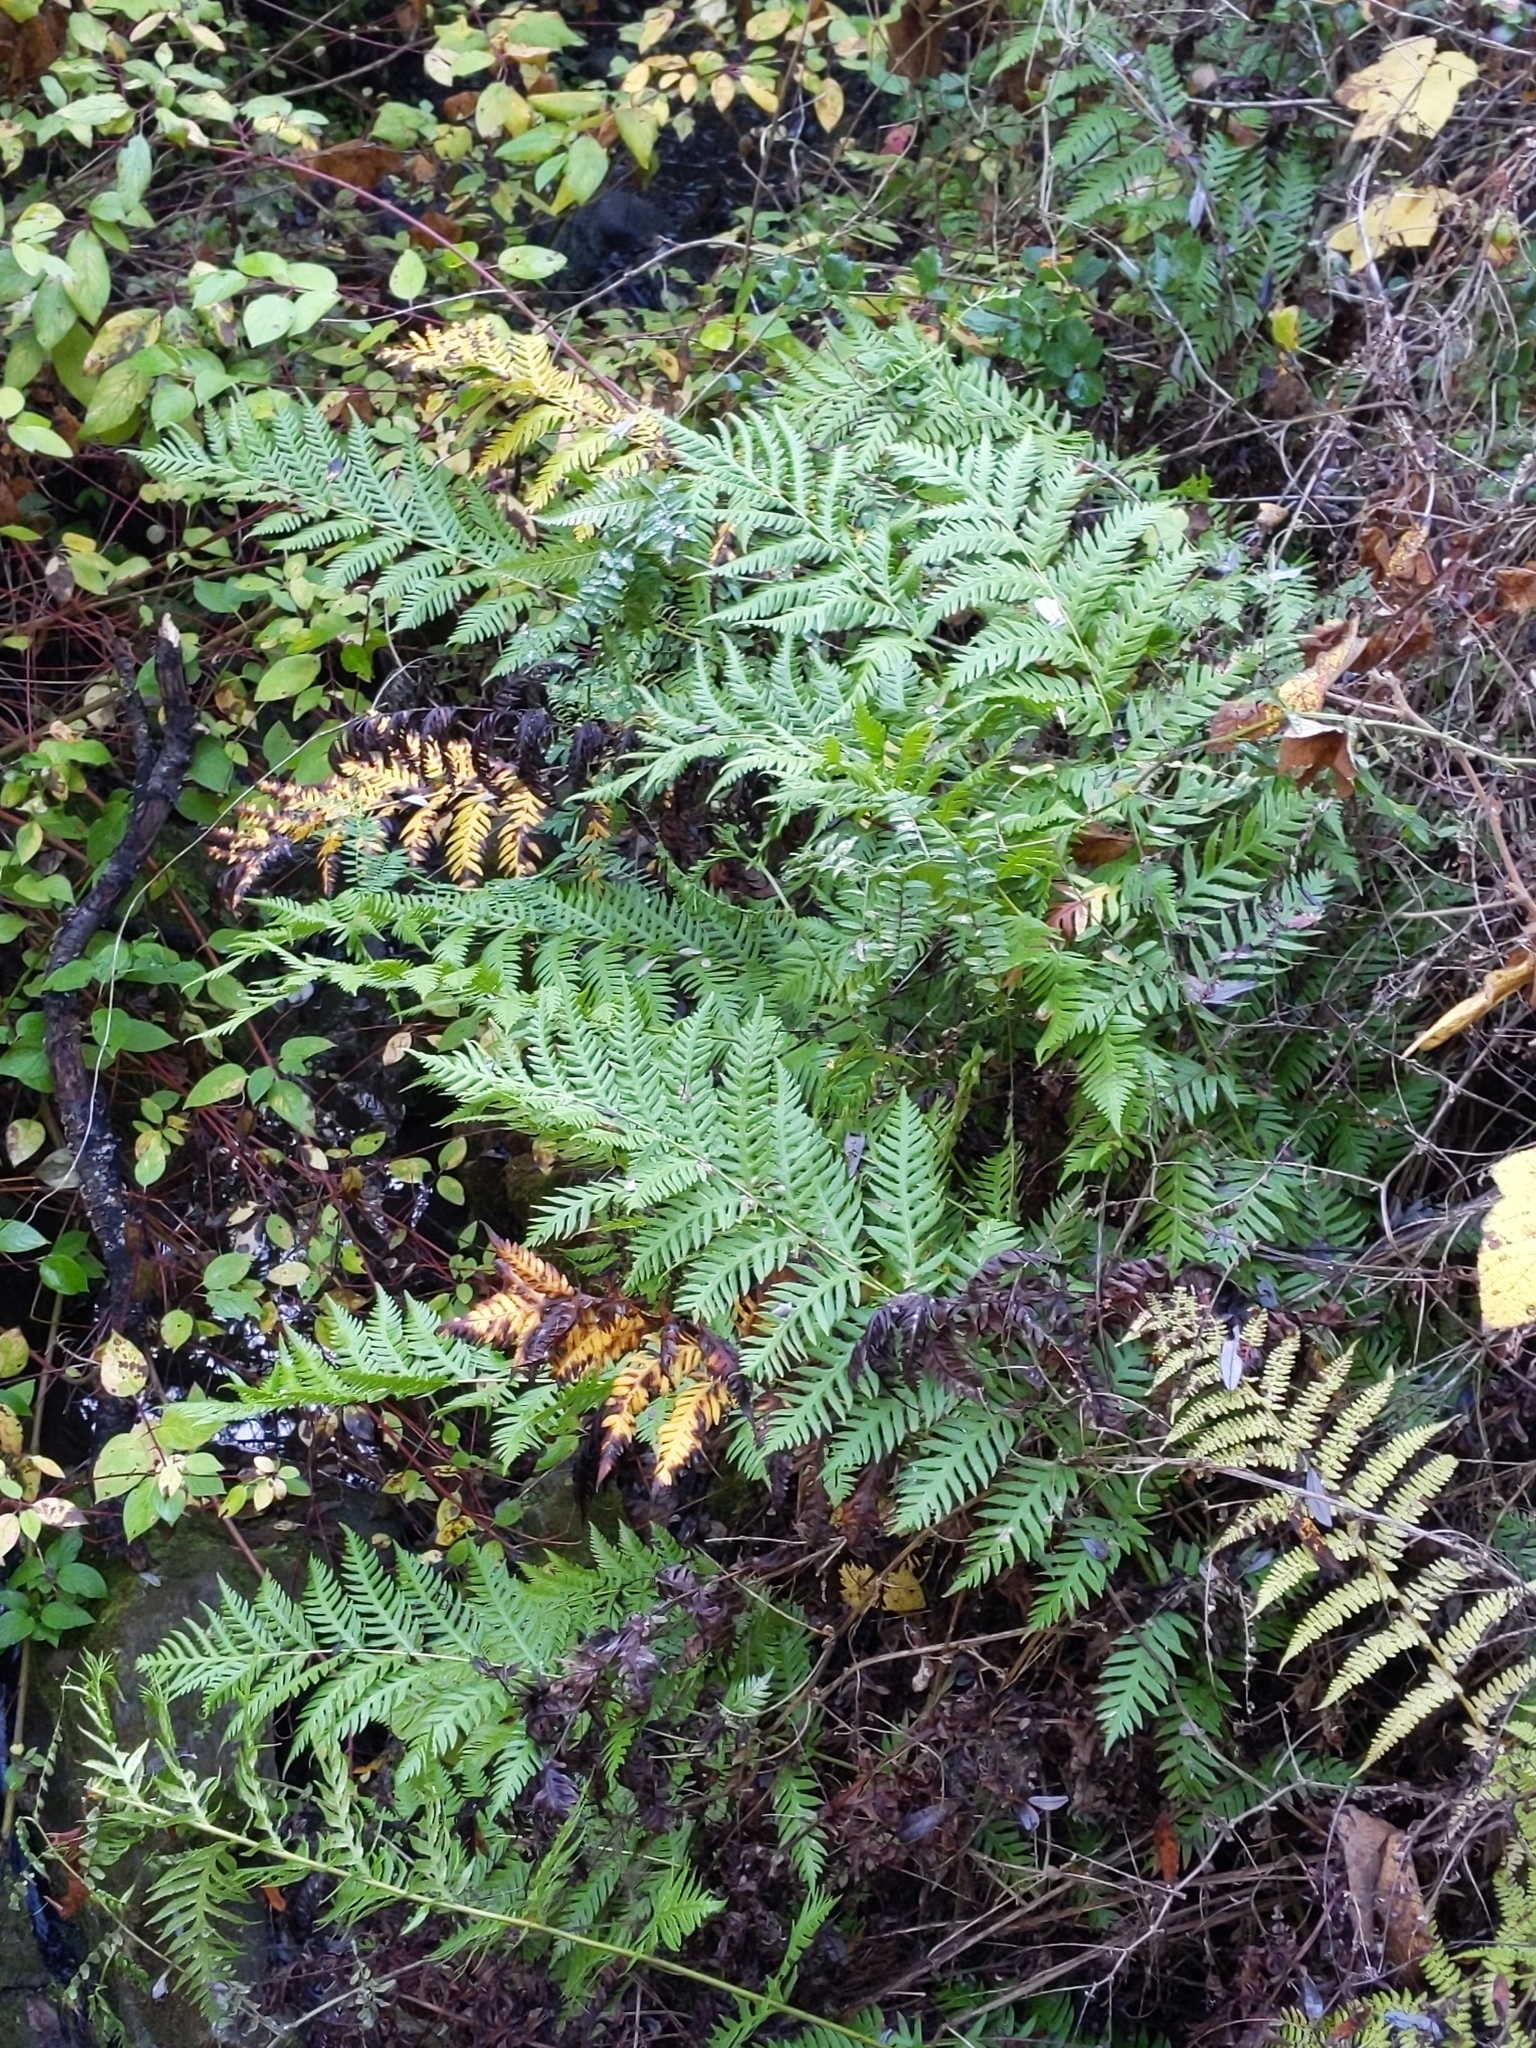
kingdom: Plantae
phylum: Tracheophyta
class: Polypodiopsida
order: Polypodiales
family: Blechnaceae
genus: Woodwardia
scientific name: Woodwardia fimbriata
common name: Giant chain fern
